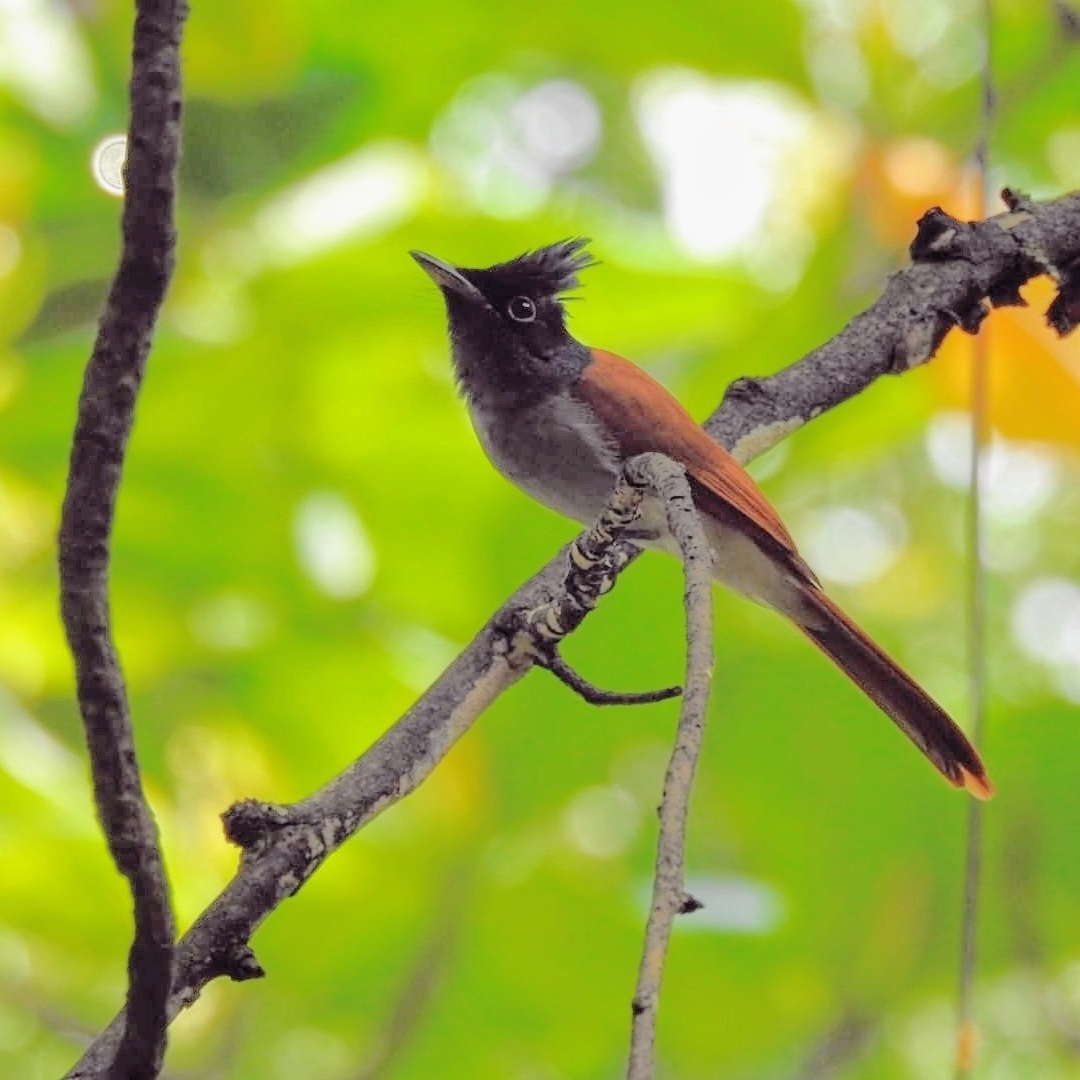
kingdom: Animalia
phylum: Chordata
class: Aves
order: Passeriformes
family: Monarchidae
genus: Terpsiphone
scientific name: Terpsiphone paradisi
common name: Indian paradise flycatcher
